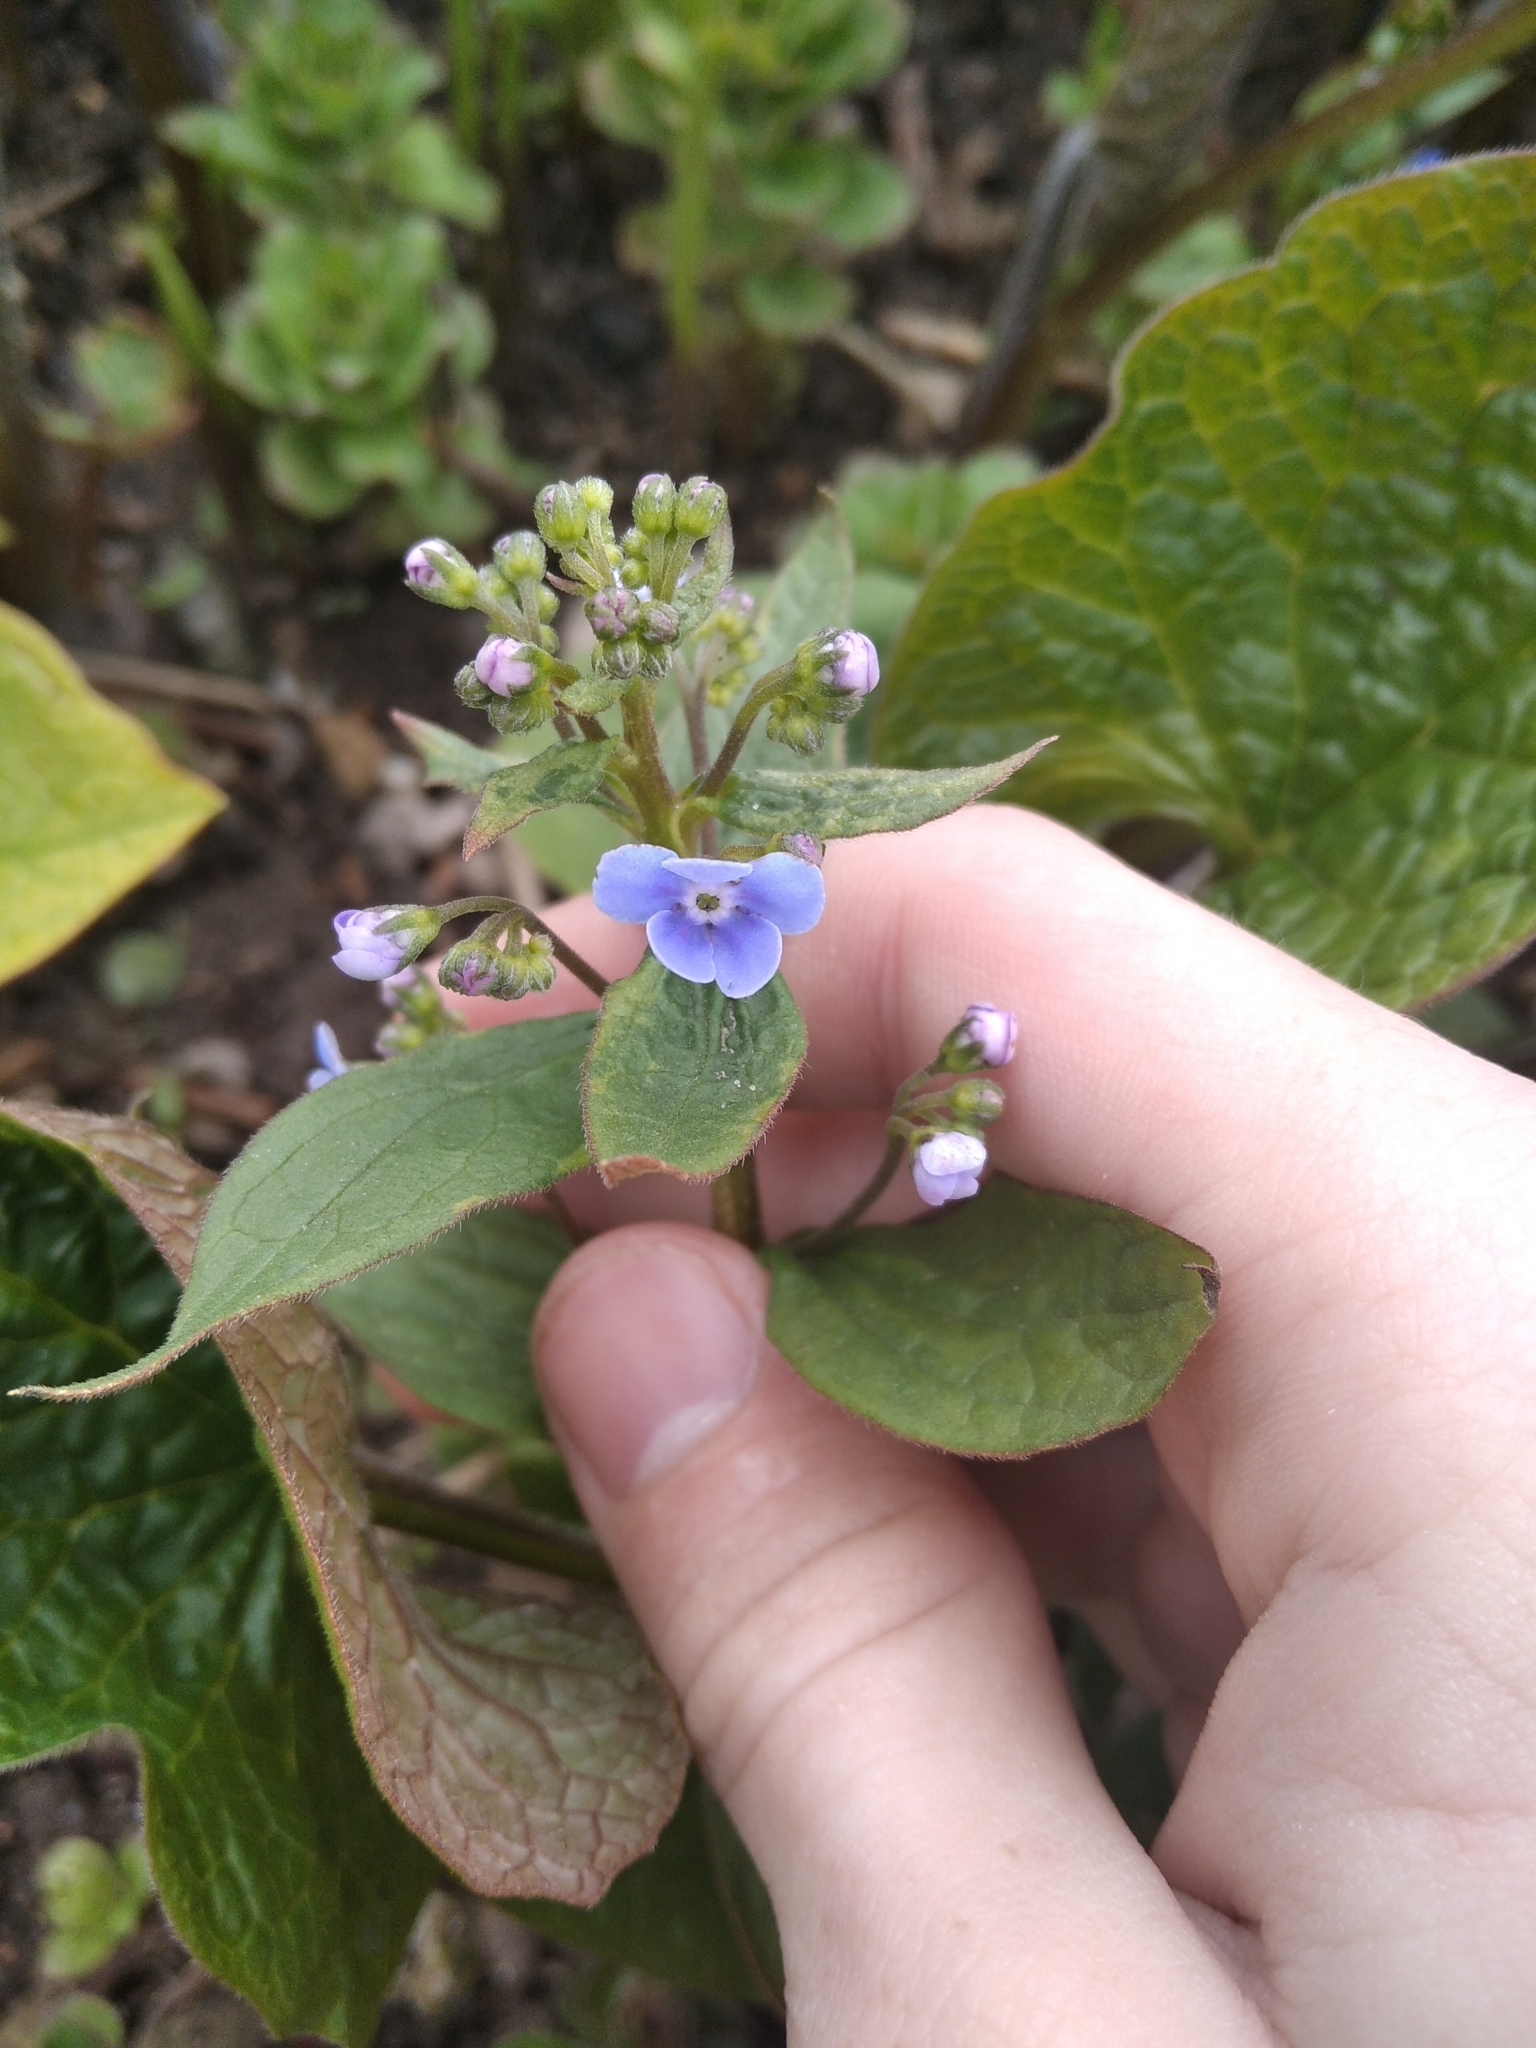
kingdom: Plantae
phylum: Tracheophyta
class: Magnoliopsida
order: Boraginales
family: Boraginaceae
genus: Brunnera
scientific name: Brunnera sibirica
